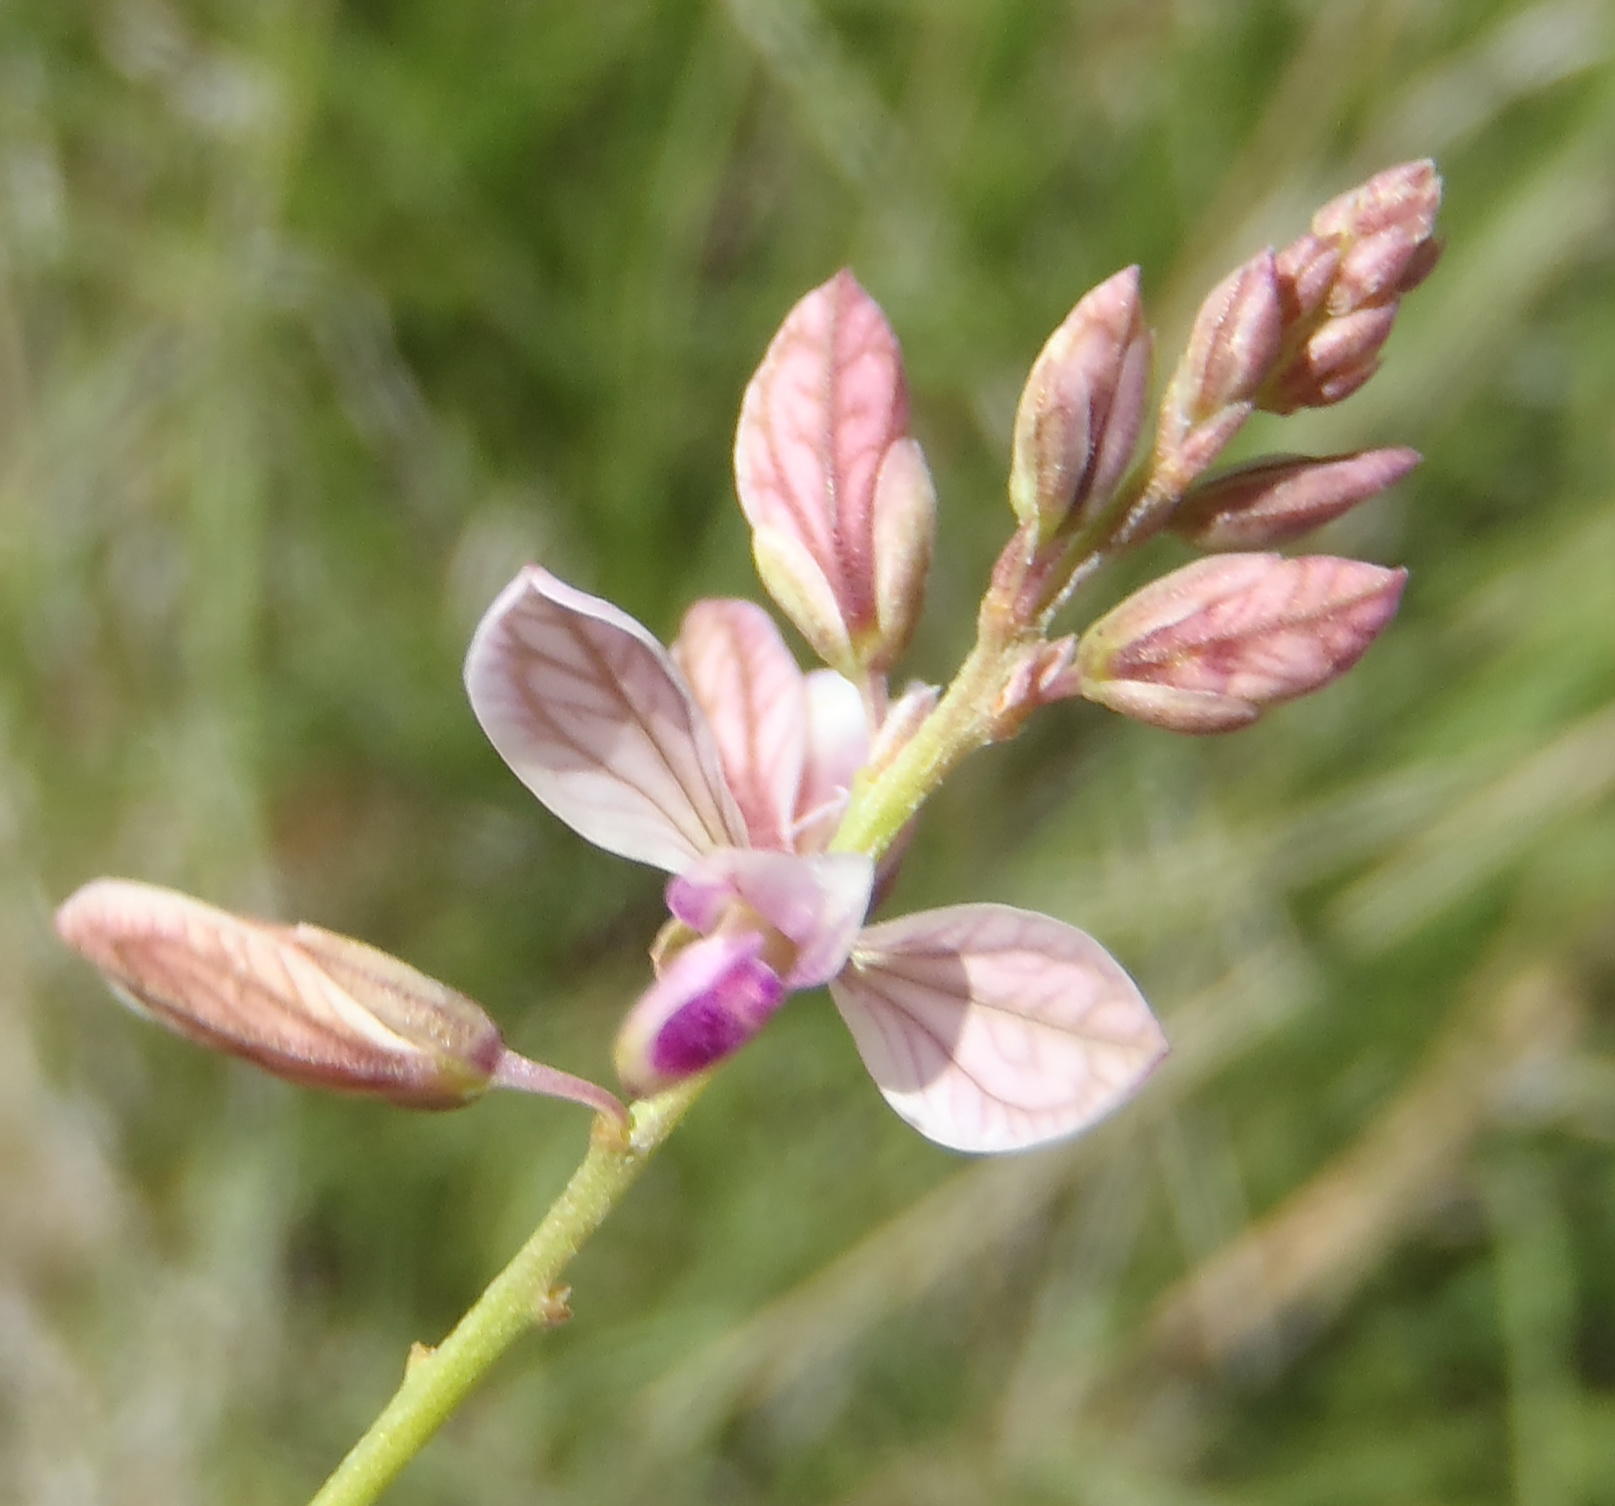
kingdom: Plantae
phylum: Tracheophyta
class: Magnoliopsida
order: Fabales
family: Polygalaceae
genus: Polygala
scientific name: Polygala hottentotta
